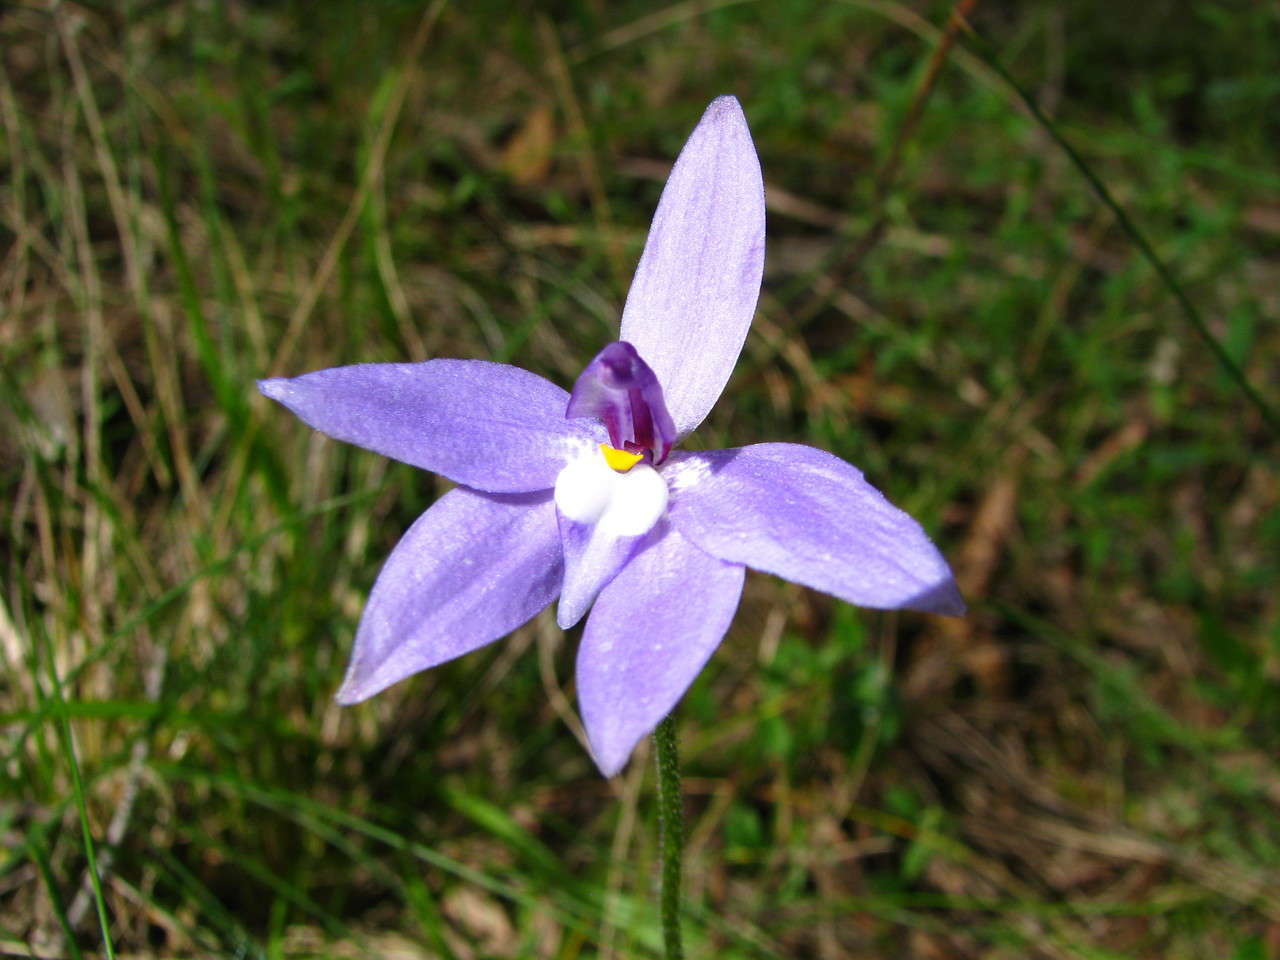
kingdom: Plantae
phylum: Tracheophyta
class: Liliopsida
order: Asparagales
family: Orchidaceae
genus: Caladenia
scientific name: Caladenia major
